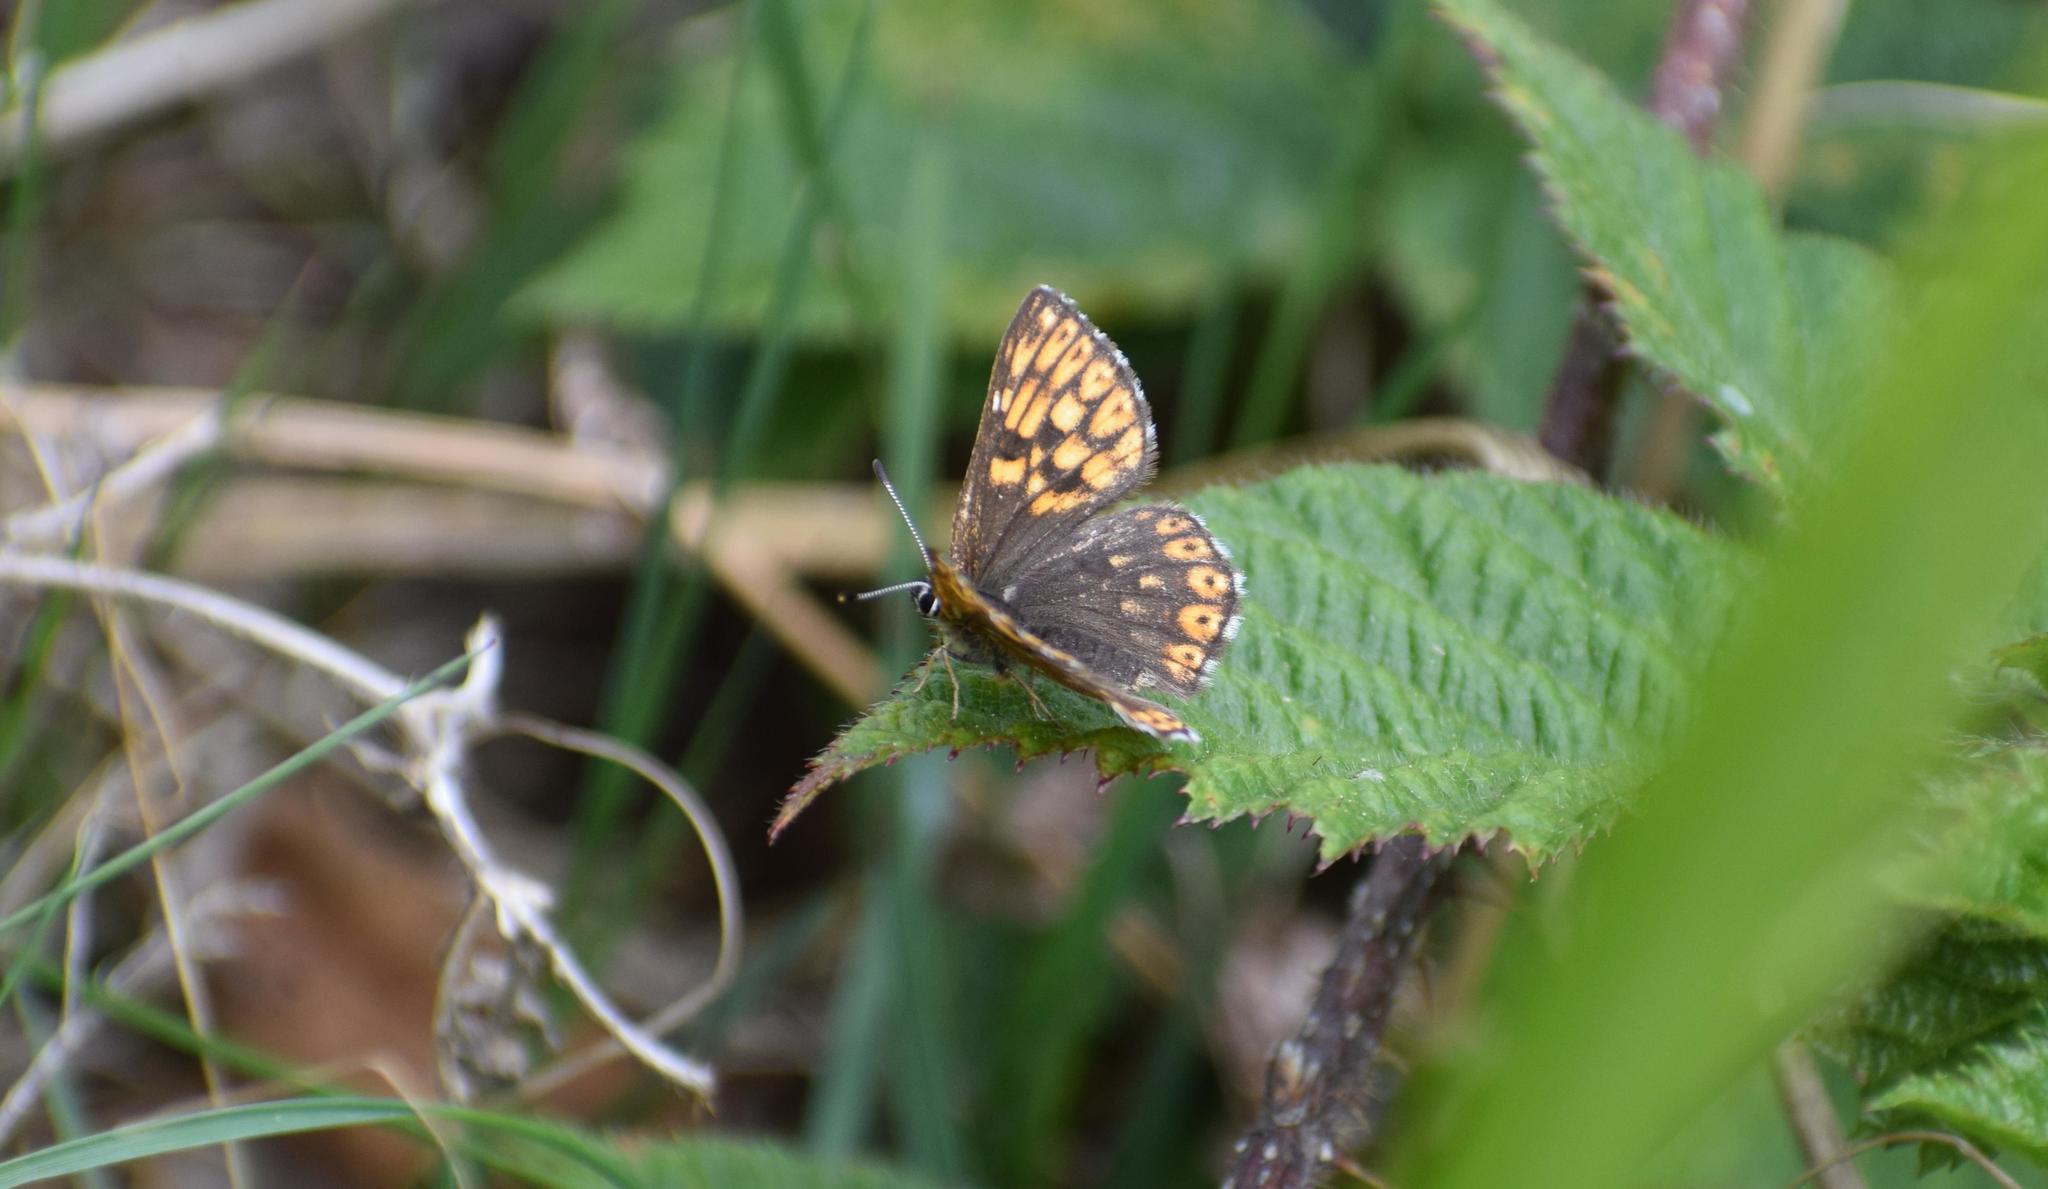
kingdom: Animalia
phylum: Arthropoda
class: Insecta
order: Lepidoptera
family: Riodinidae
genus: Hamearis
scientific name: Hamearis lucina
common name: Duke of burgundy fritillary
